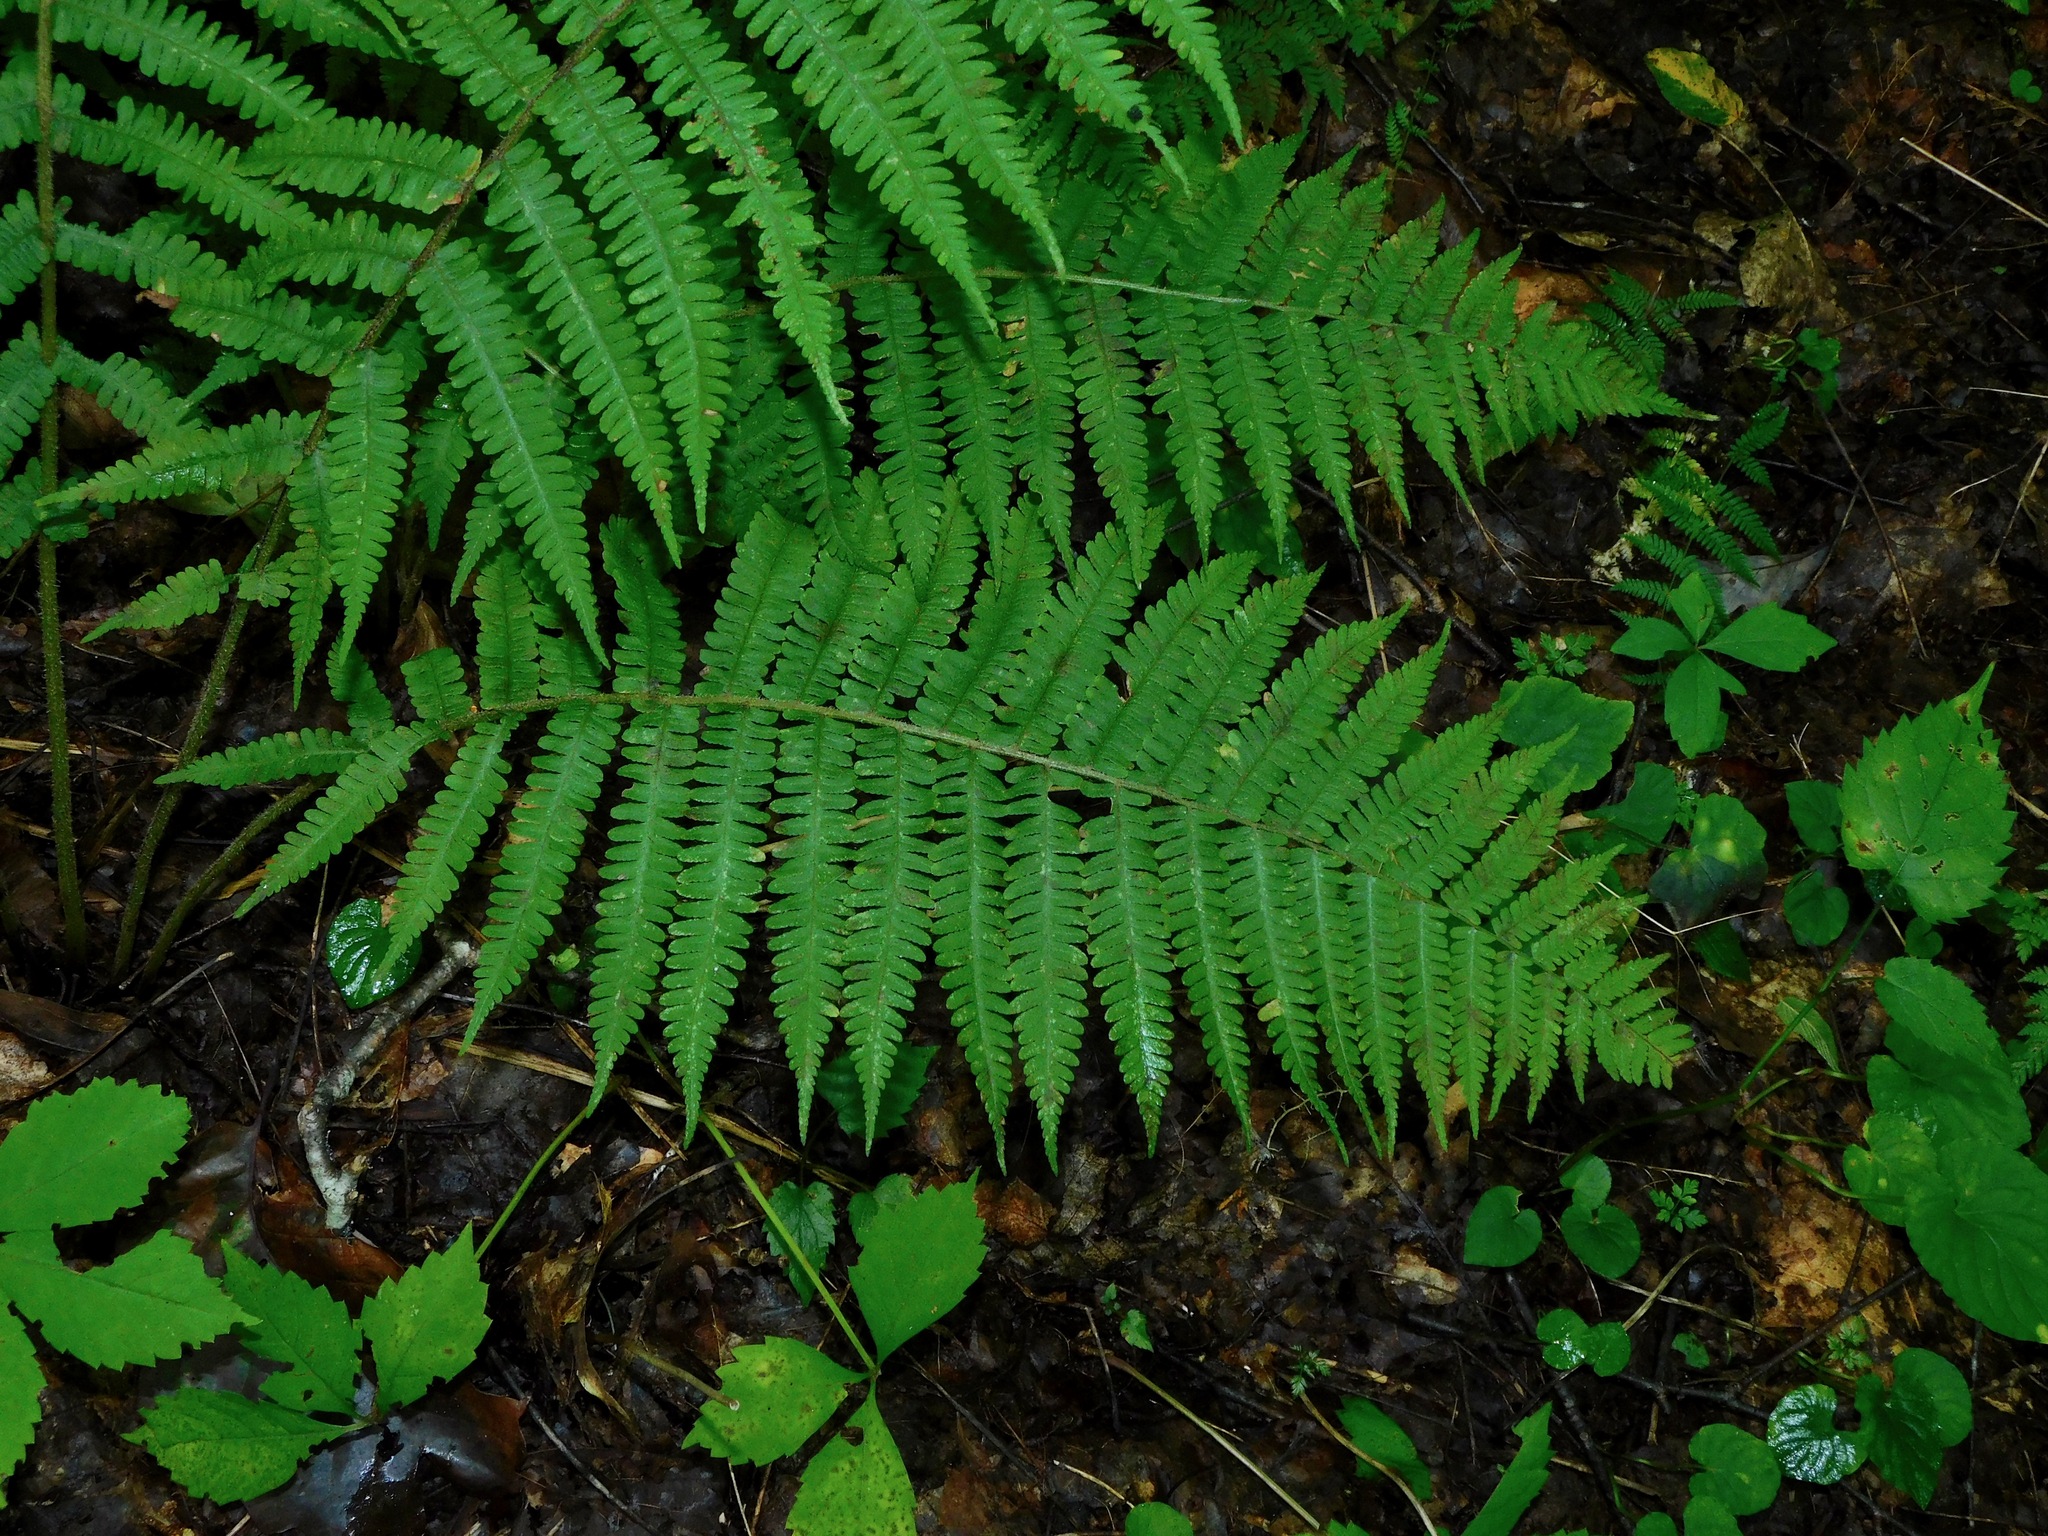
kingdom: Plantae
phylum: Tracheophyta
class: Polypodiopsida
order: Polypodiales
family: Athyriaceae
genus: Deparia
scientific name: Deparia acrostichoides
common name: Silver false spleenwort
